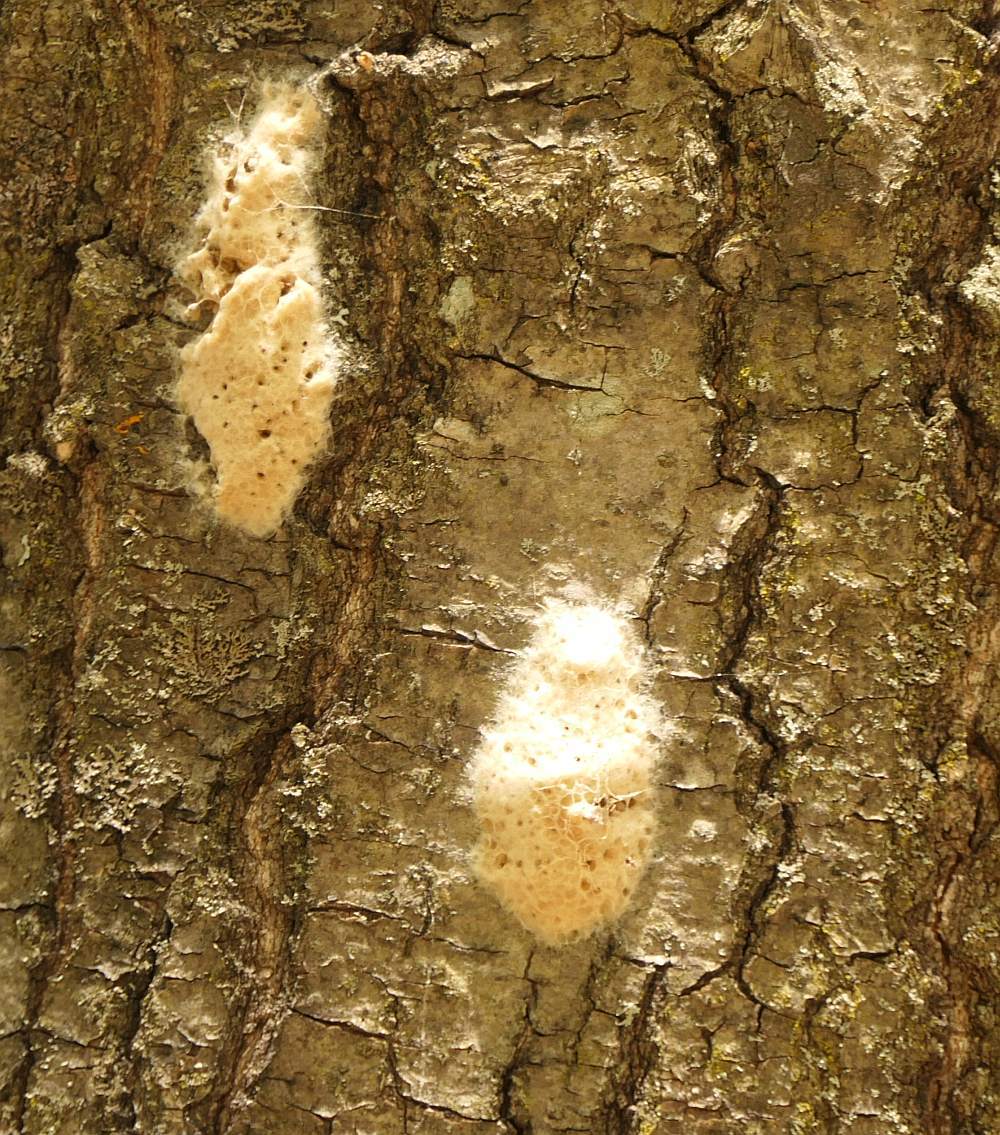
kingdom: Animalia
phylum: Arthropoda
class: Insecta
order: Lepidoptera
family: Erebidae
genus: Lymantria
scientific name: Lymantria dispar
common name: Gypsy moth
